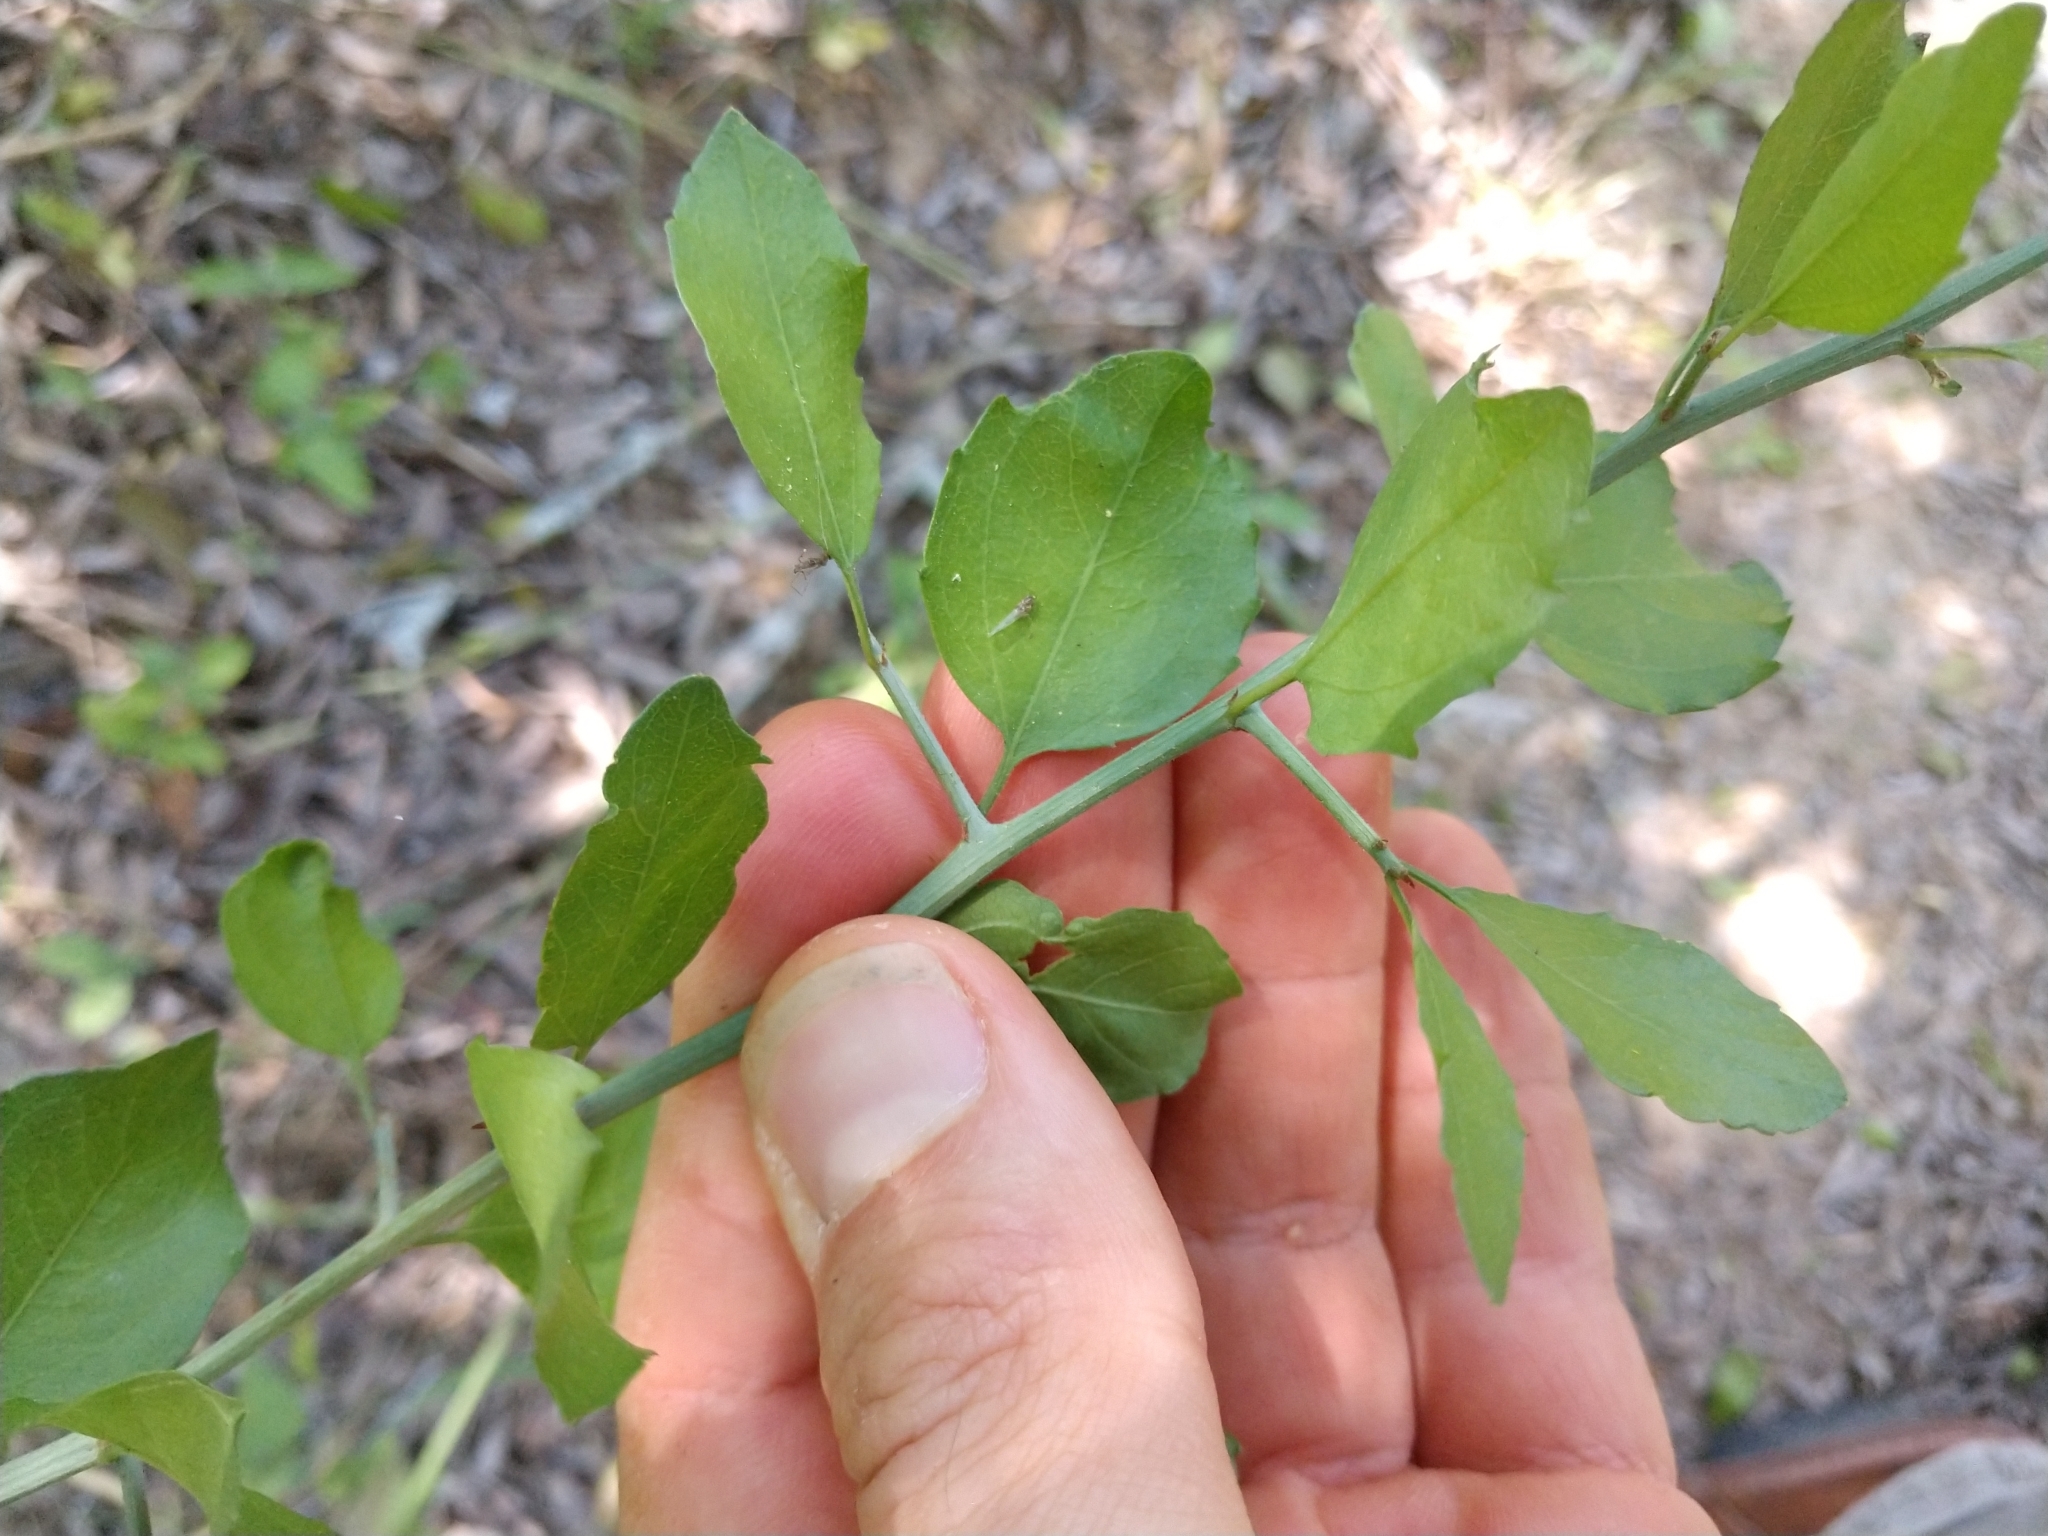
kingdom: Plantae
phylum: Tracheophyta
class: Magnoliopsida
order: Rosales
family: Rhamnaceae
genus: Sarcomphalus
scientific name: Sarcomphalus obtusifolius
